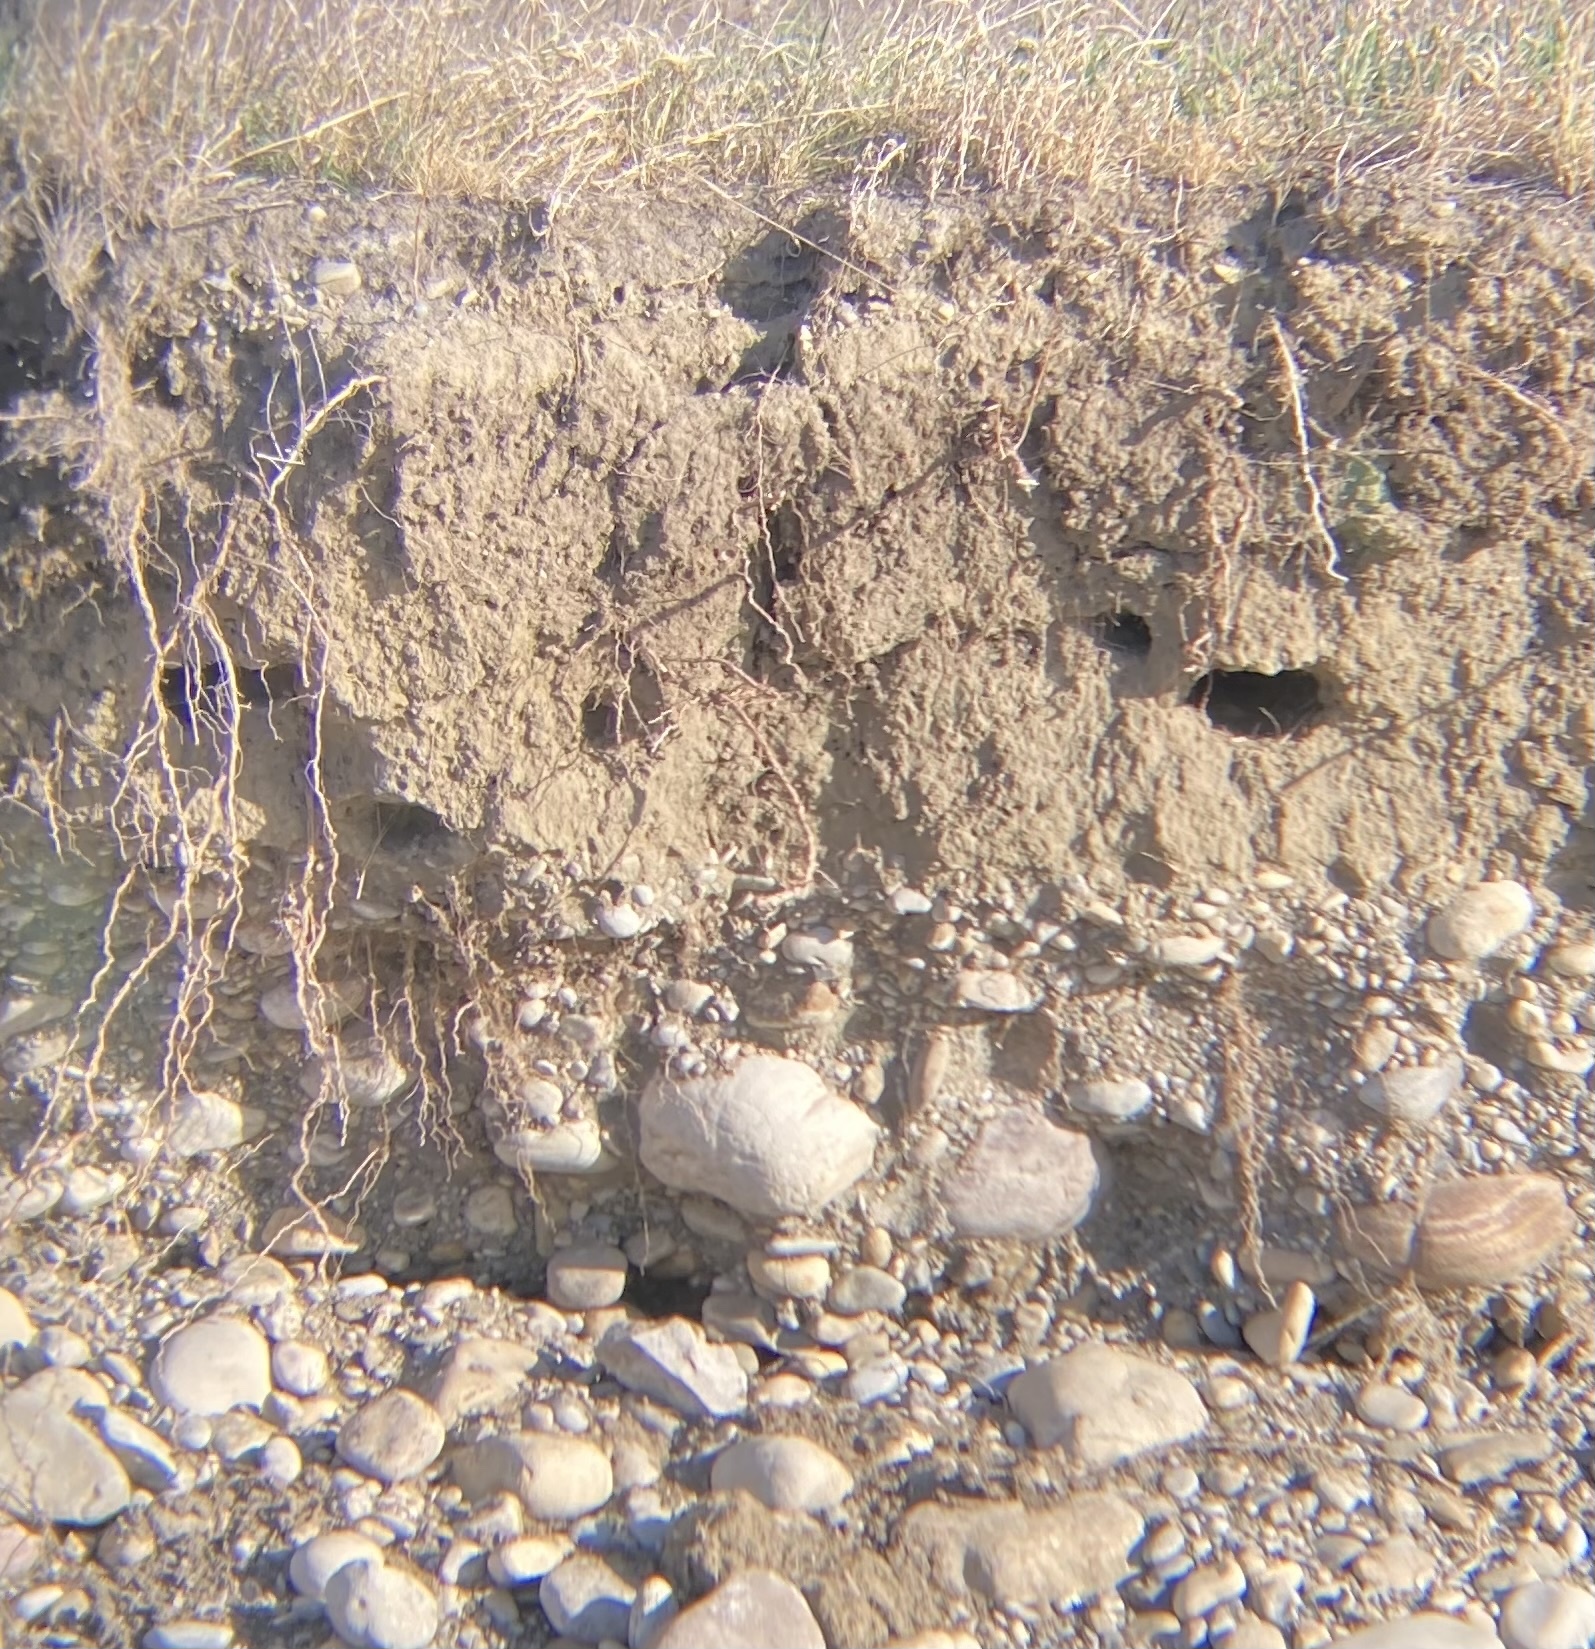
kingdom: Animalia
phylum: Chordata
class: Aves
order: Passeriformes
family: Hirundinidae
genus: Riparia
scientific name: Riparia riparia
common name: Sand martin
